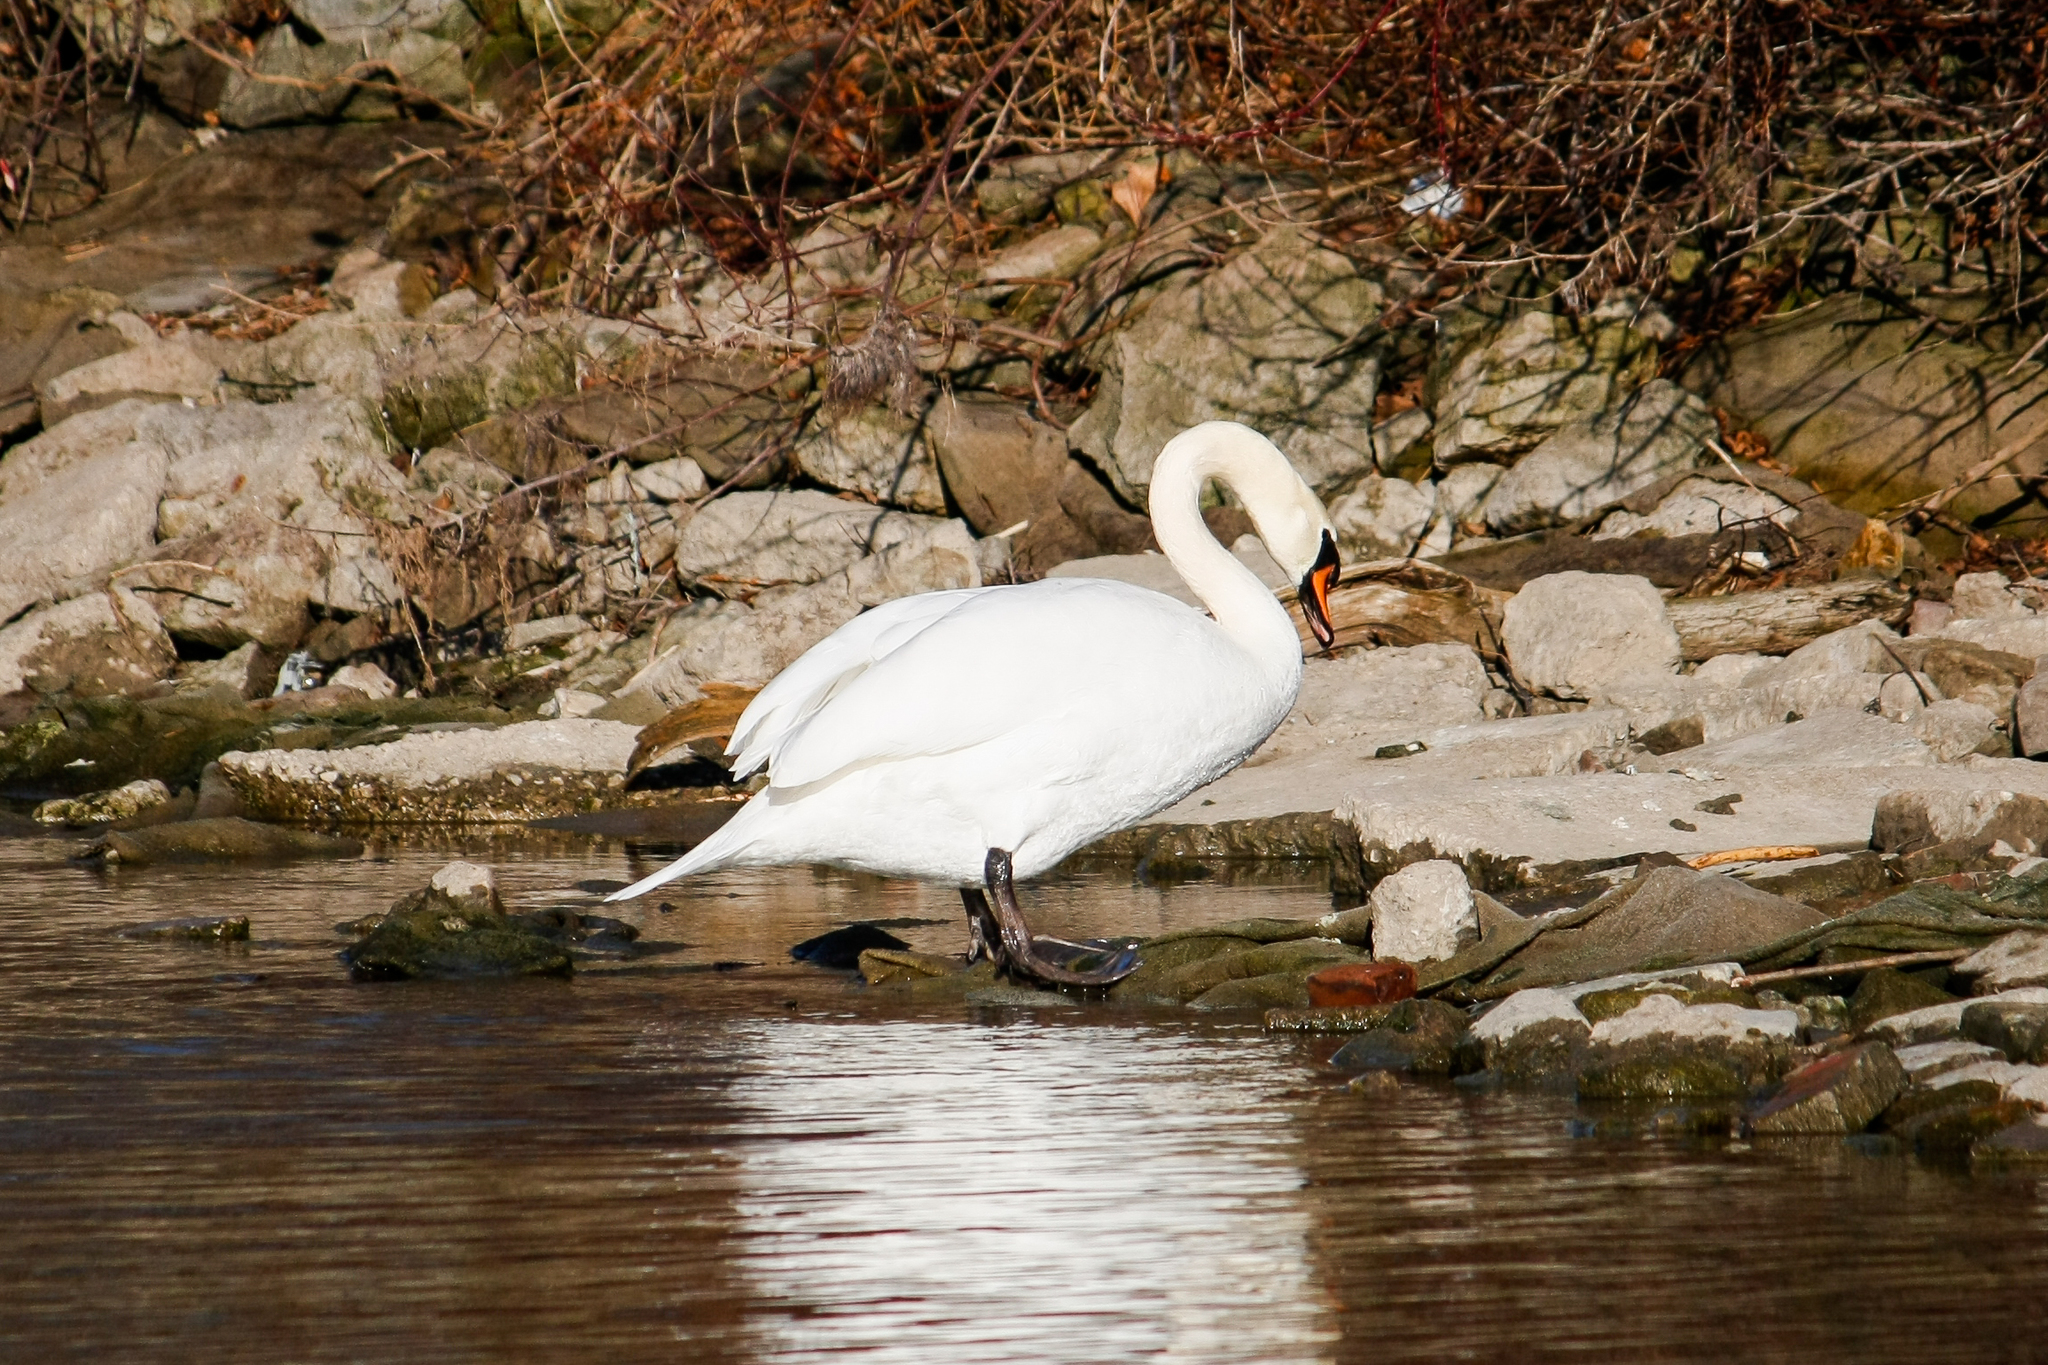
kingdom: Animalia
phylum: Chordata
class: Aves
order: Anseriformes
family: Anatidae
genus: Cygnus
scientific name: Cygnus olor
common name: Mute swan
